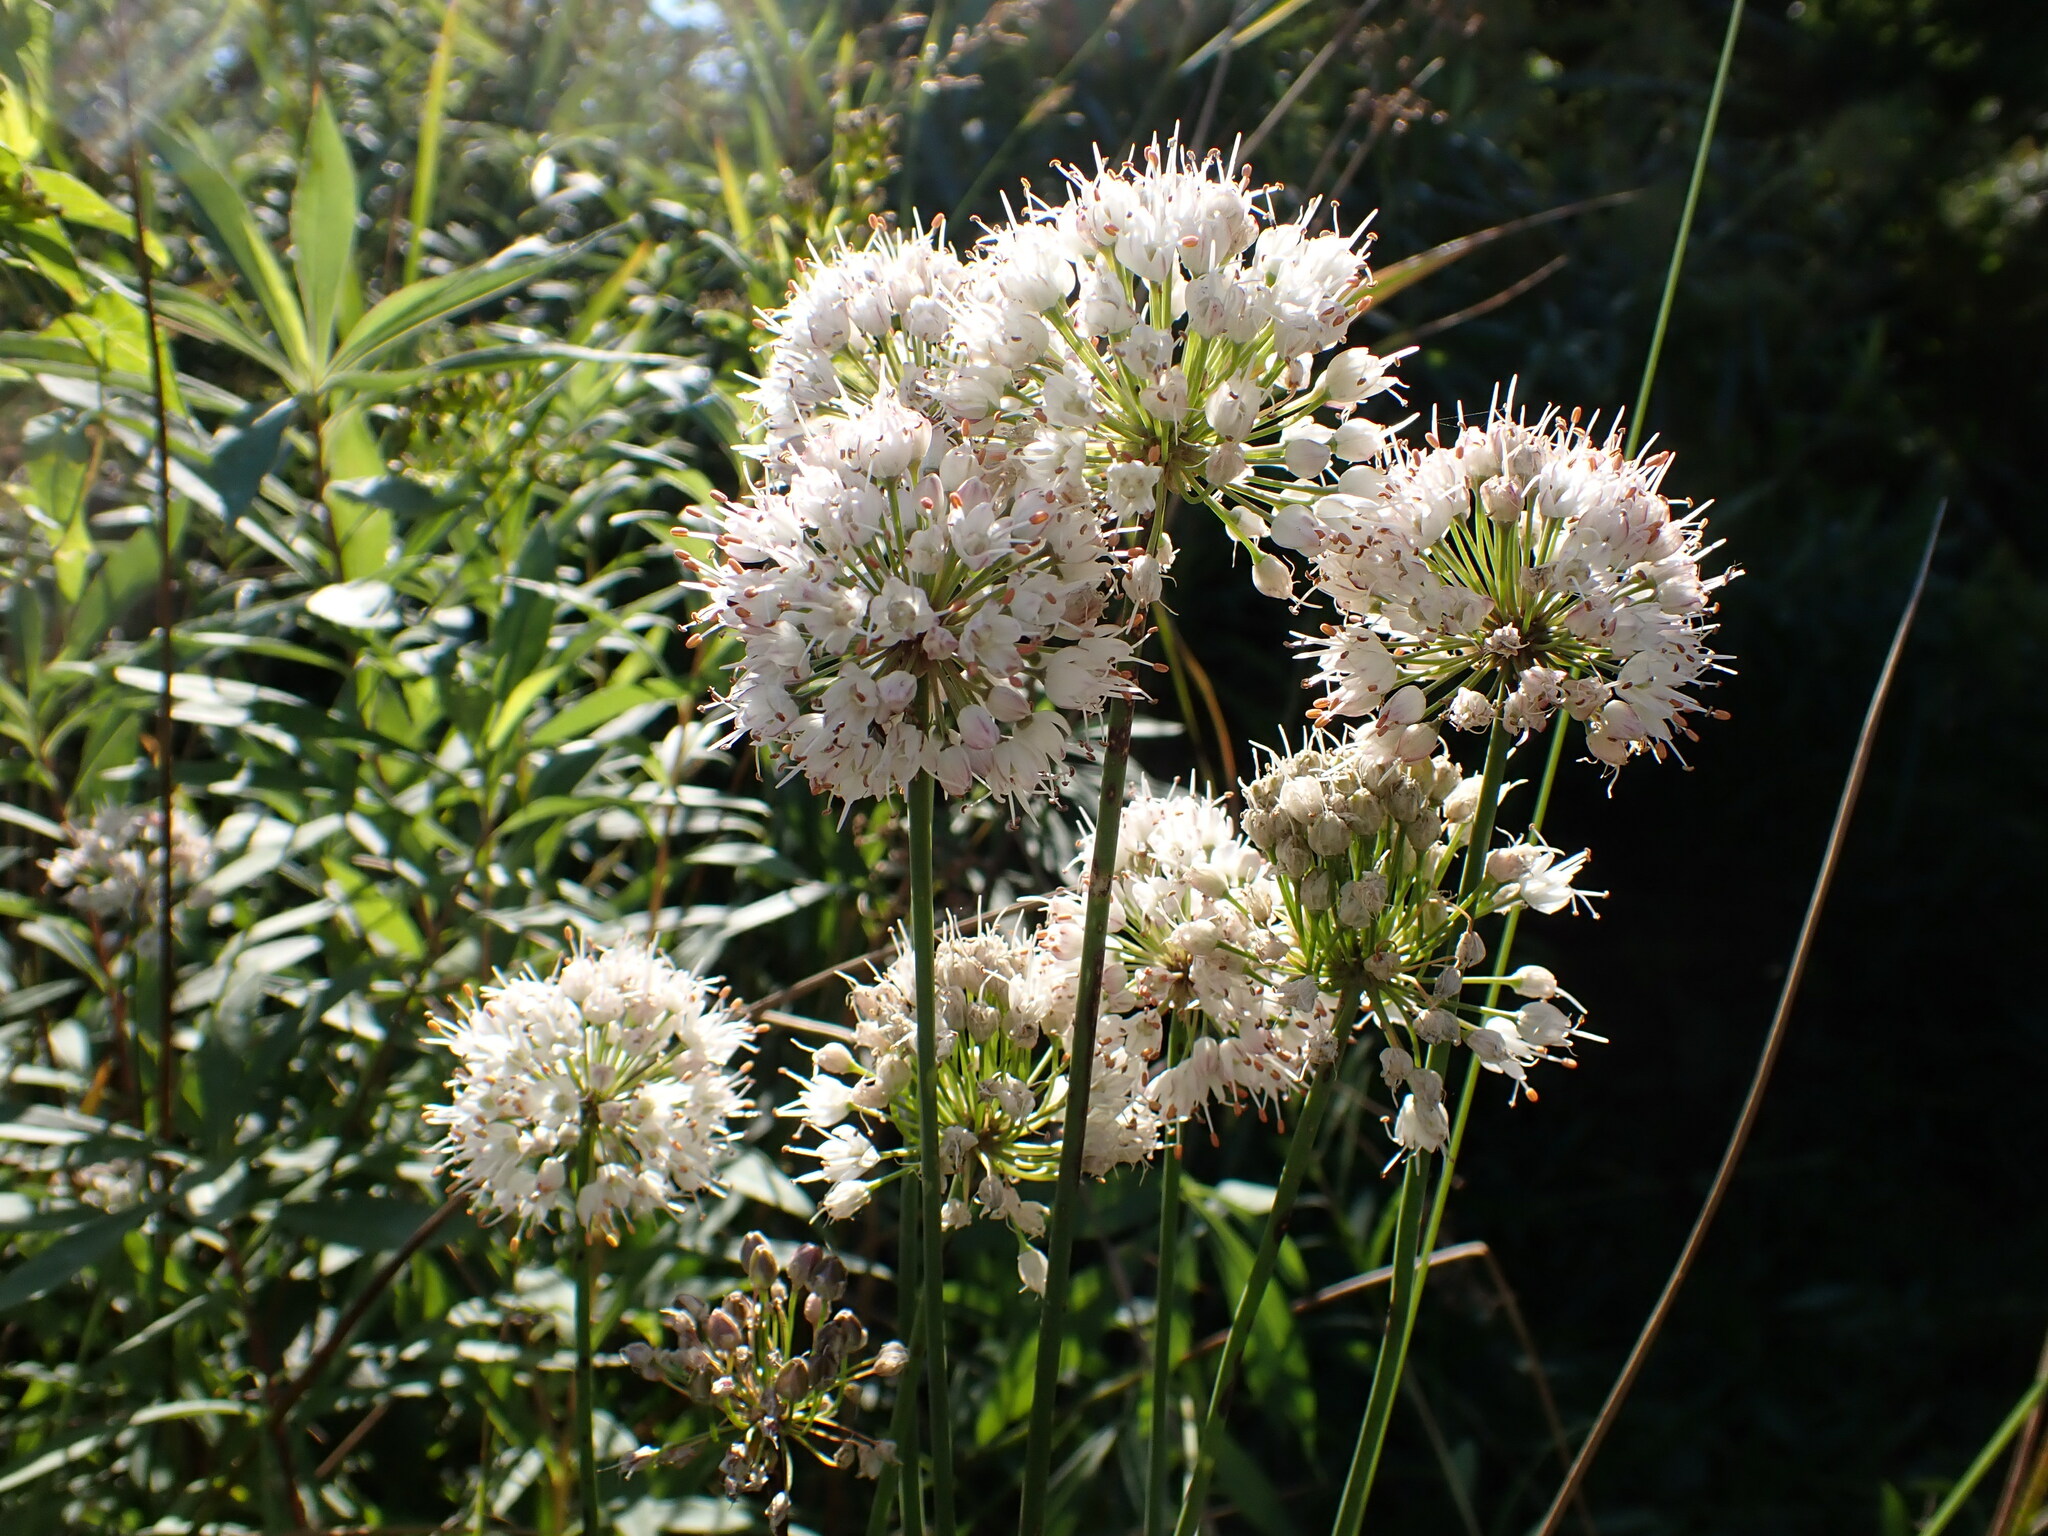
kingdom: Plantae
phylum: Tracheophyta
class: Liliopsida
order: Asparagales
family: Amaryllidaceae
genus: Allium
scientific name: Allium suaveolens
